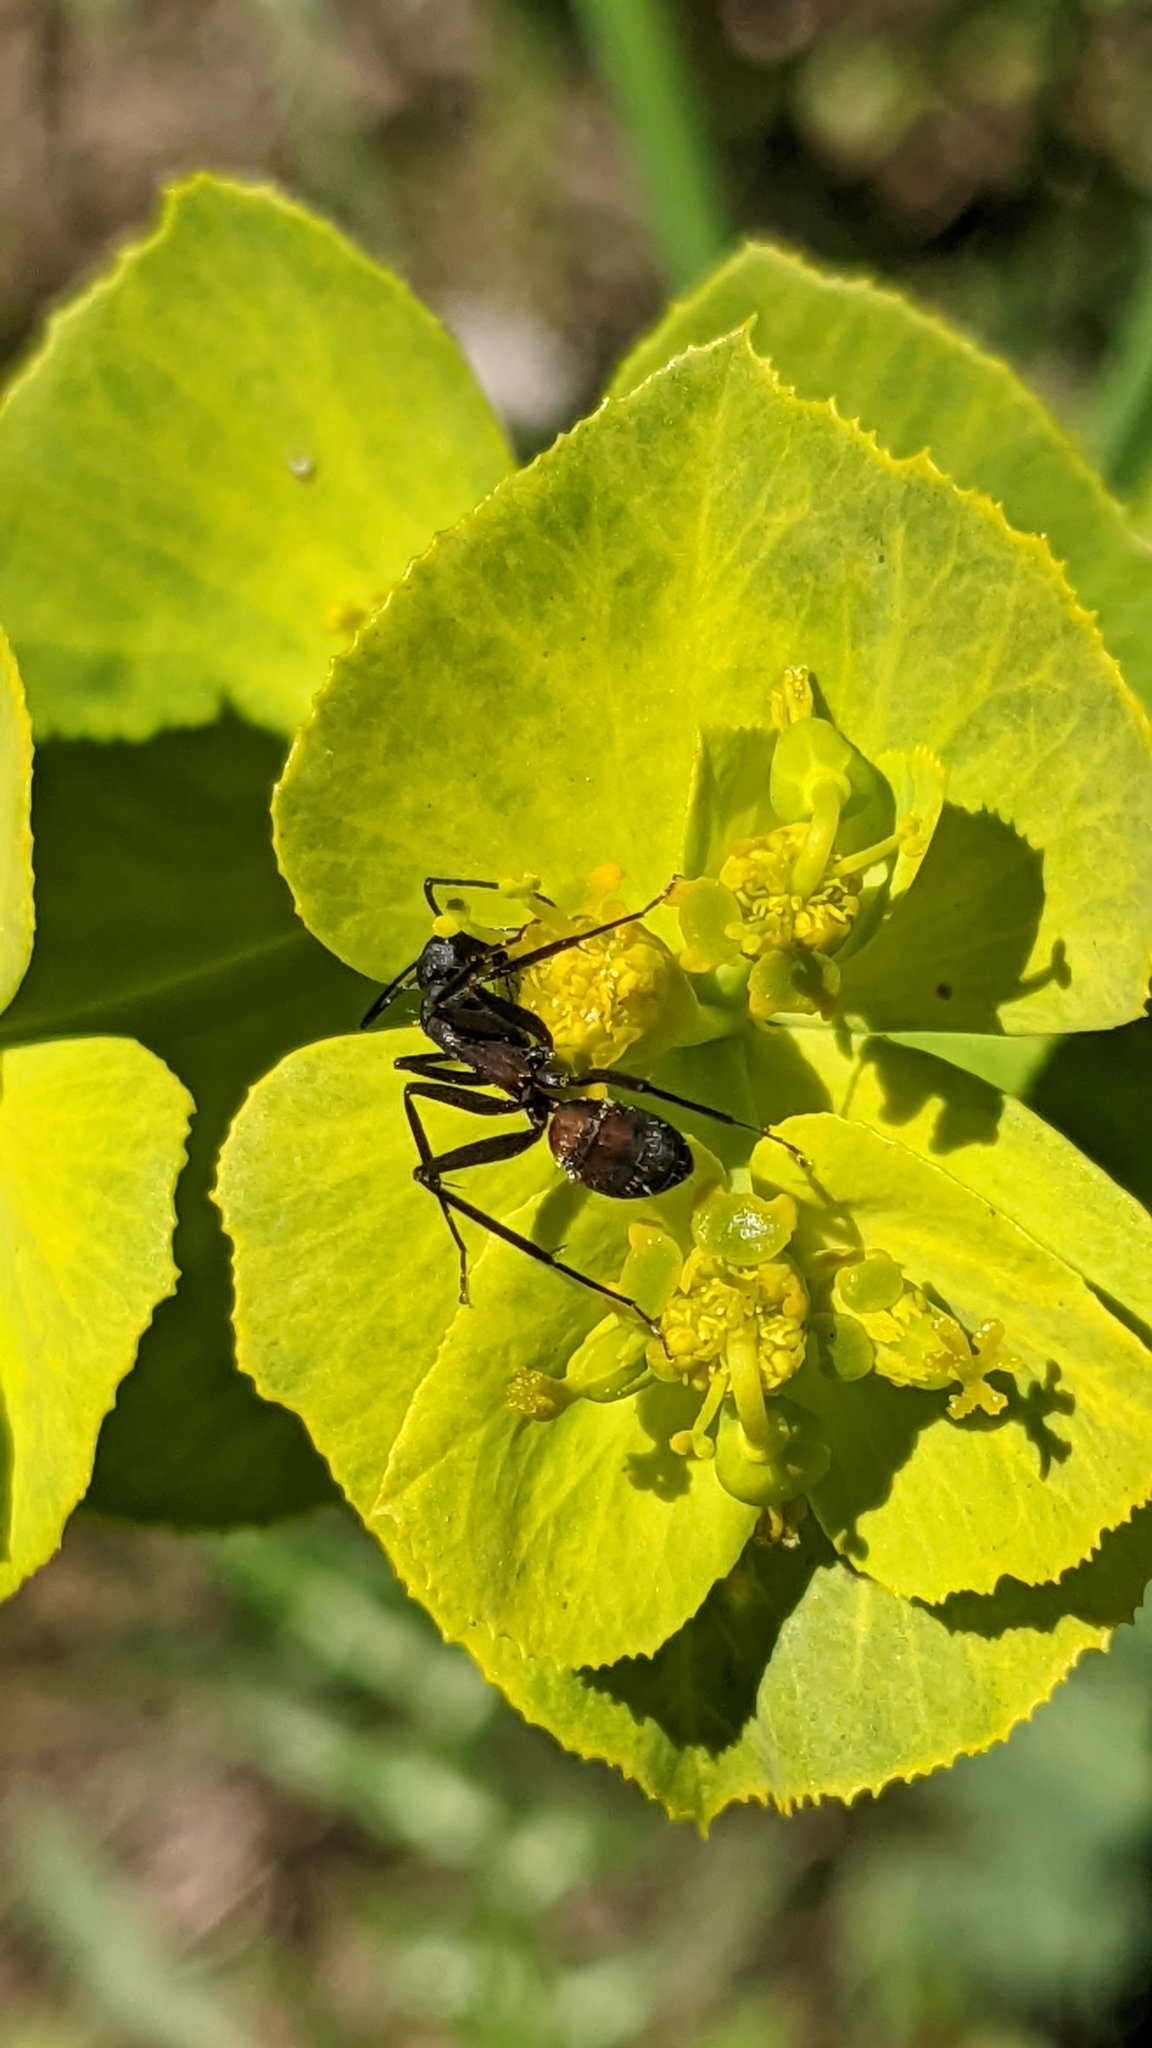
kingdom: Animalia
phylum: Arthropoda
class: Insecta
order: Hymenoptera
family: Formicidae
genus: Camponotus
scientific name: Camponotus cruentatus
